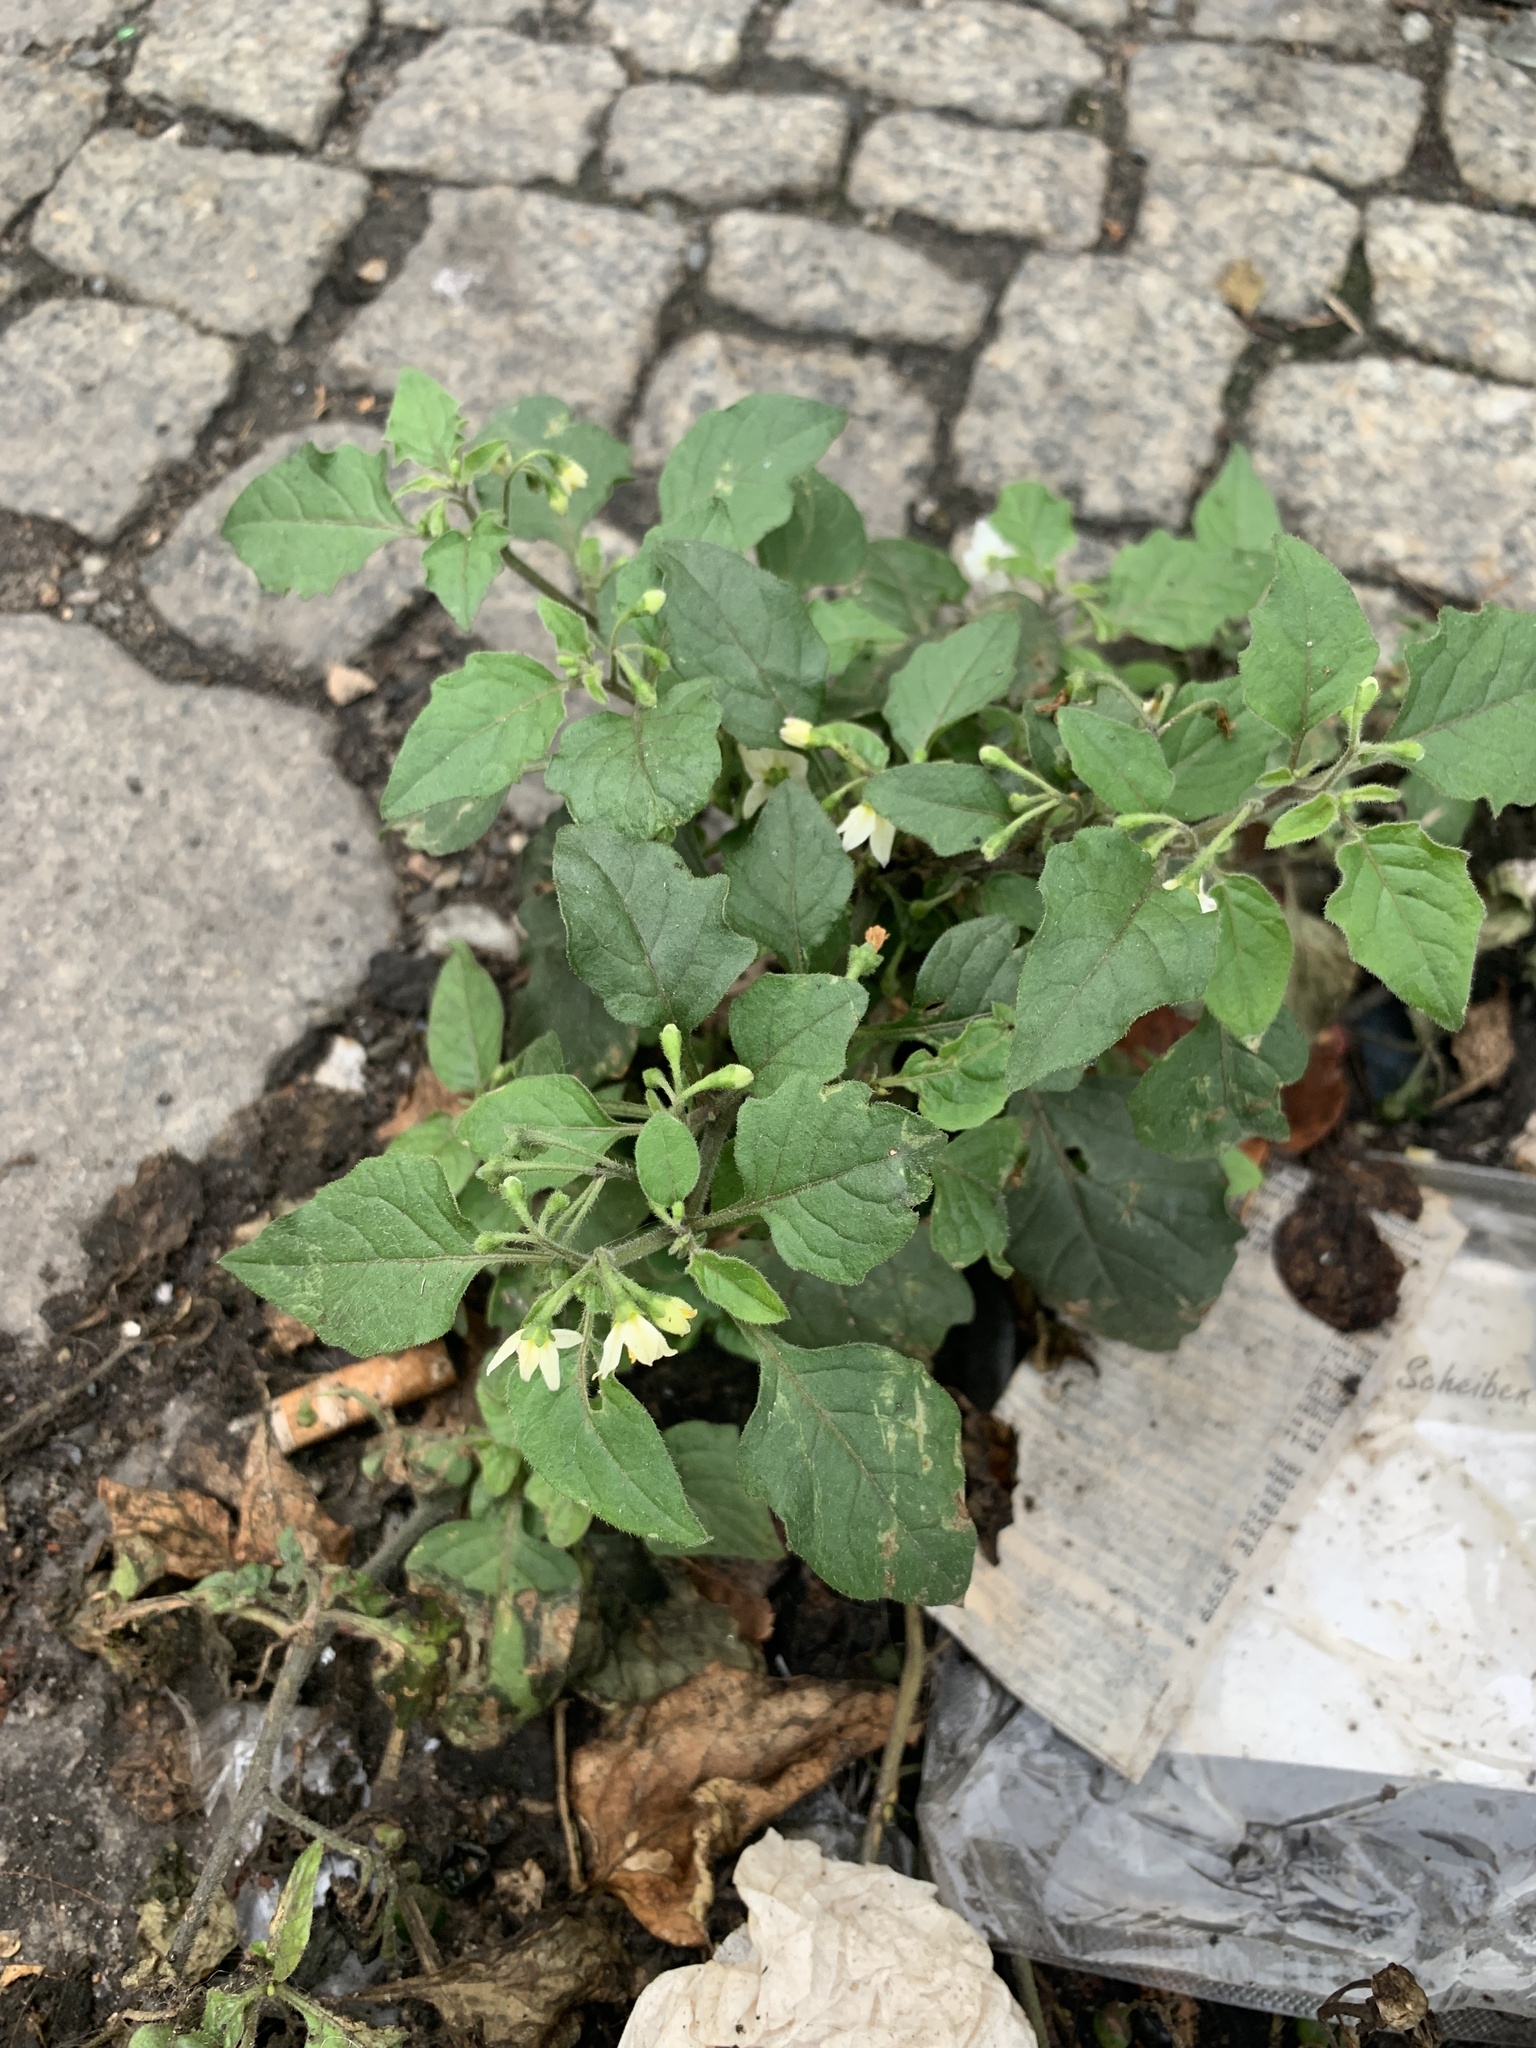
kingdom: Plantae
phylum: Tracheophyta
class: Magnoliopsida
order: Solanales
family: Solanaceae
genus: Solanum
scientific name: Solanum nigrum
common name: Black nightshade
